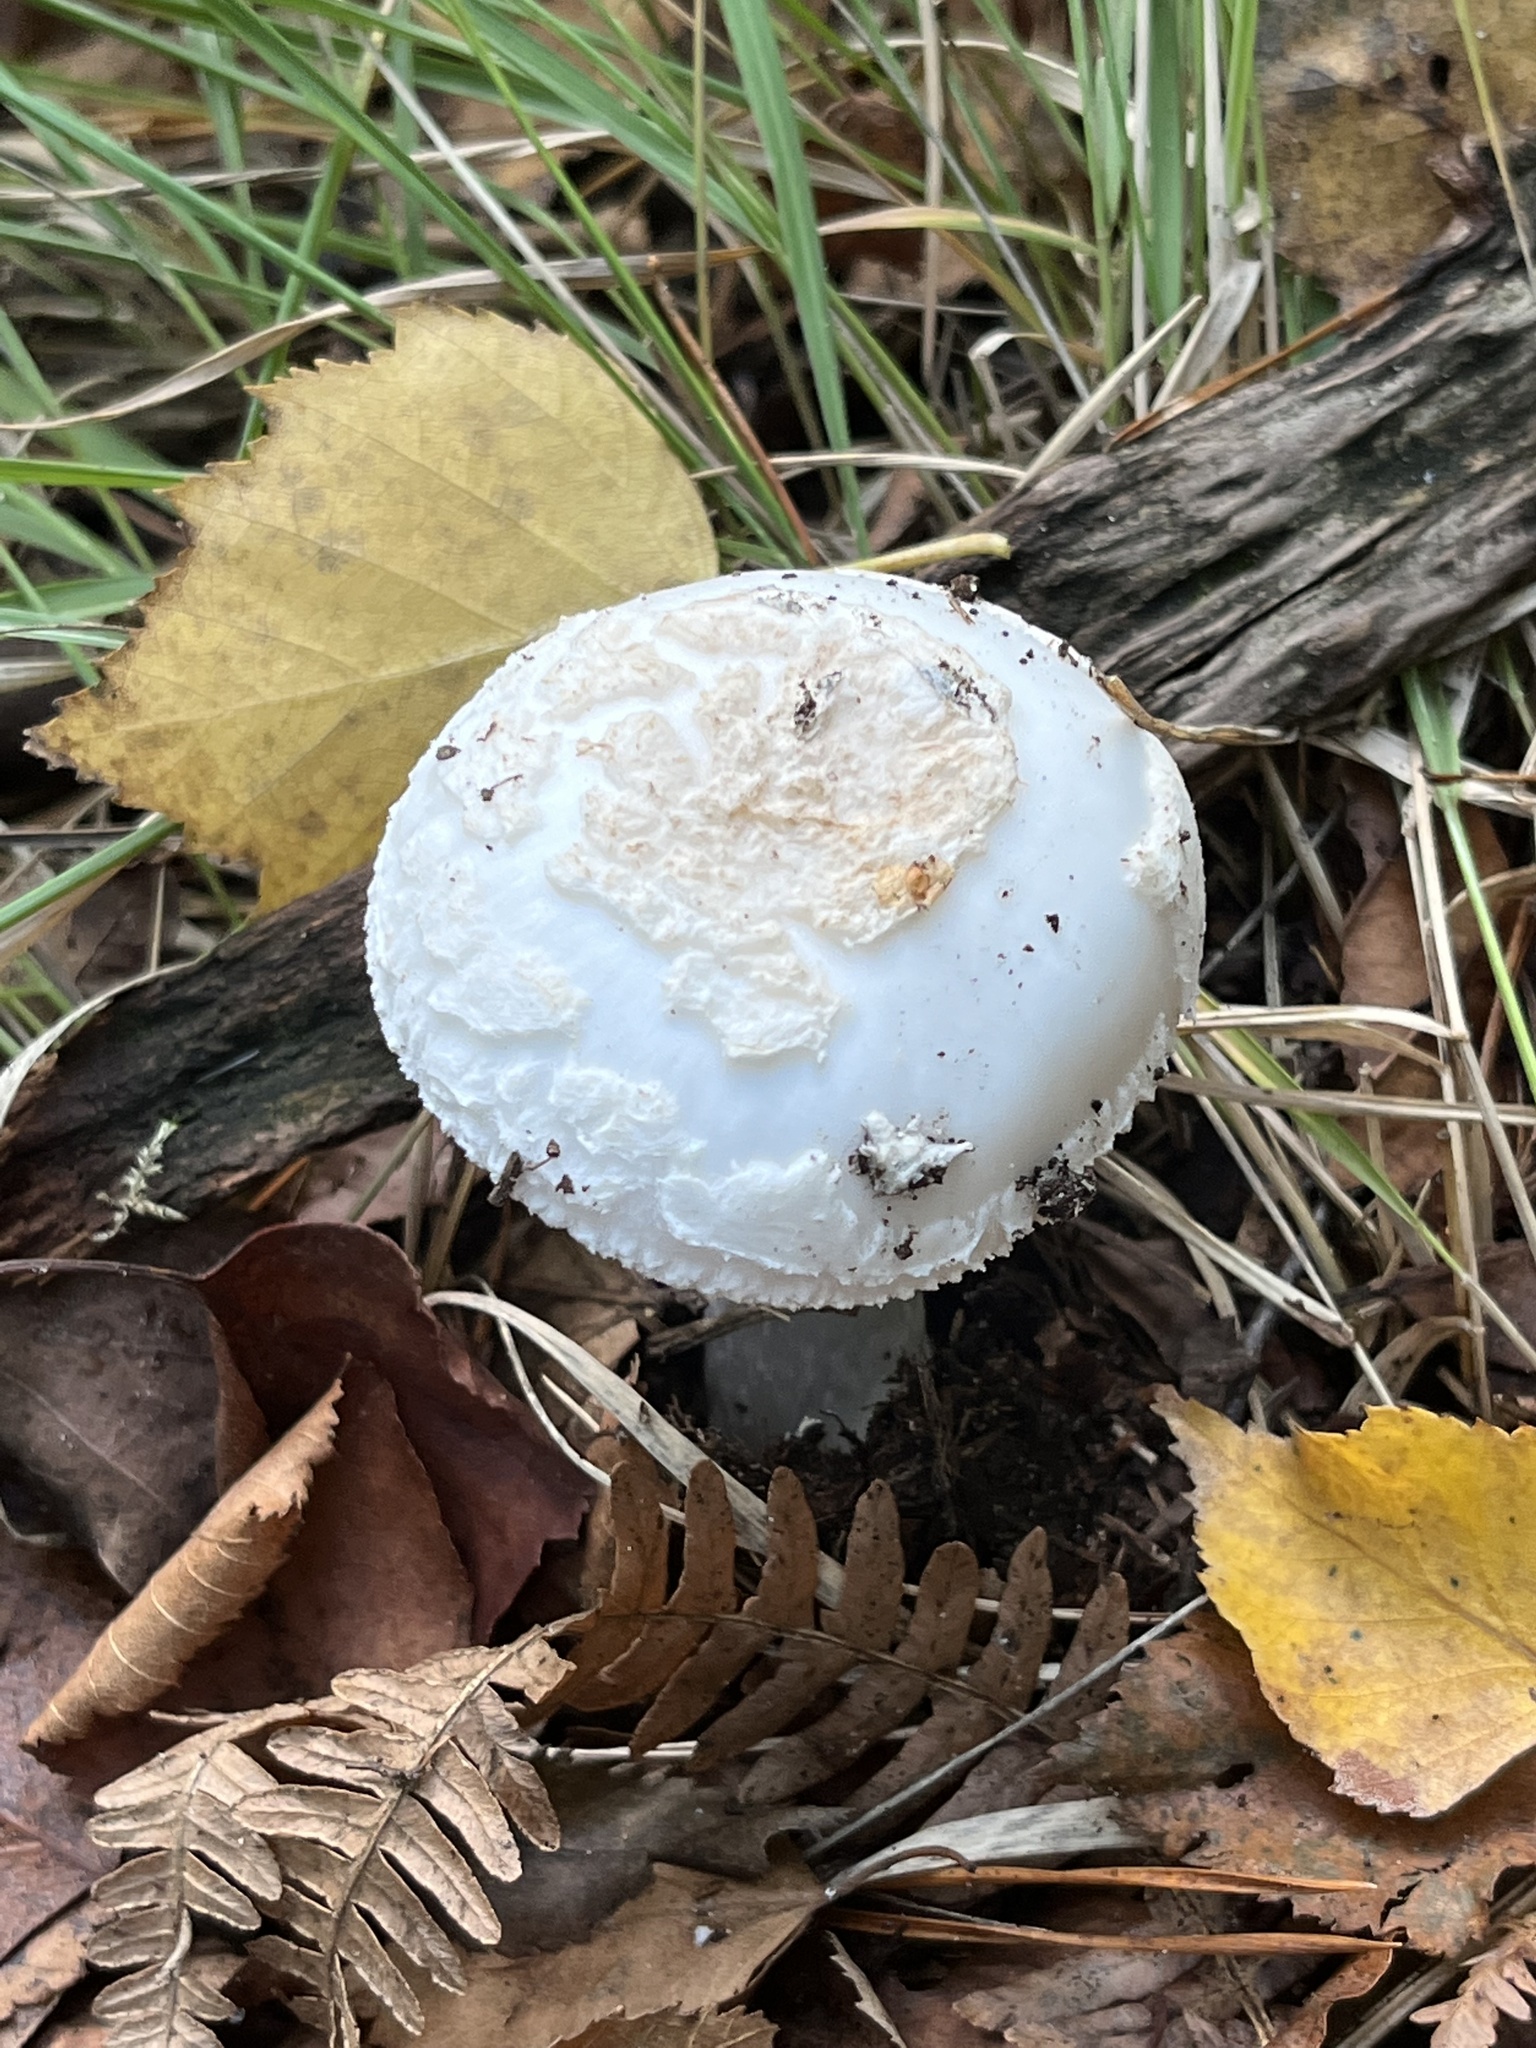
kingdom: Fungi
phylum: Basidiomycota
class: Agaricomycetes
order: Agaricales
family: Amanitaceae
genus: Amanita
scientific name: Amanita citrina
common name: False death-cap
